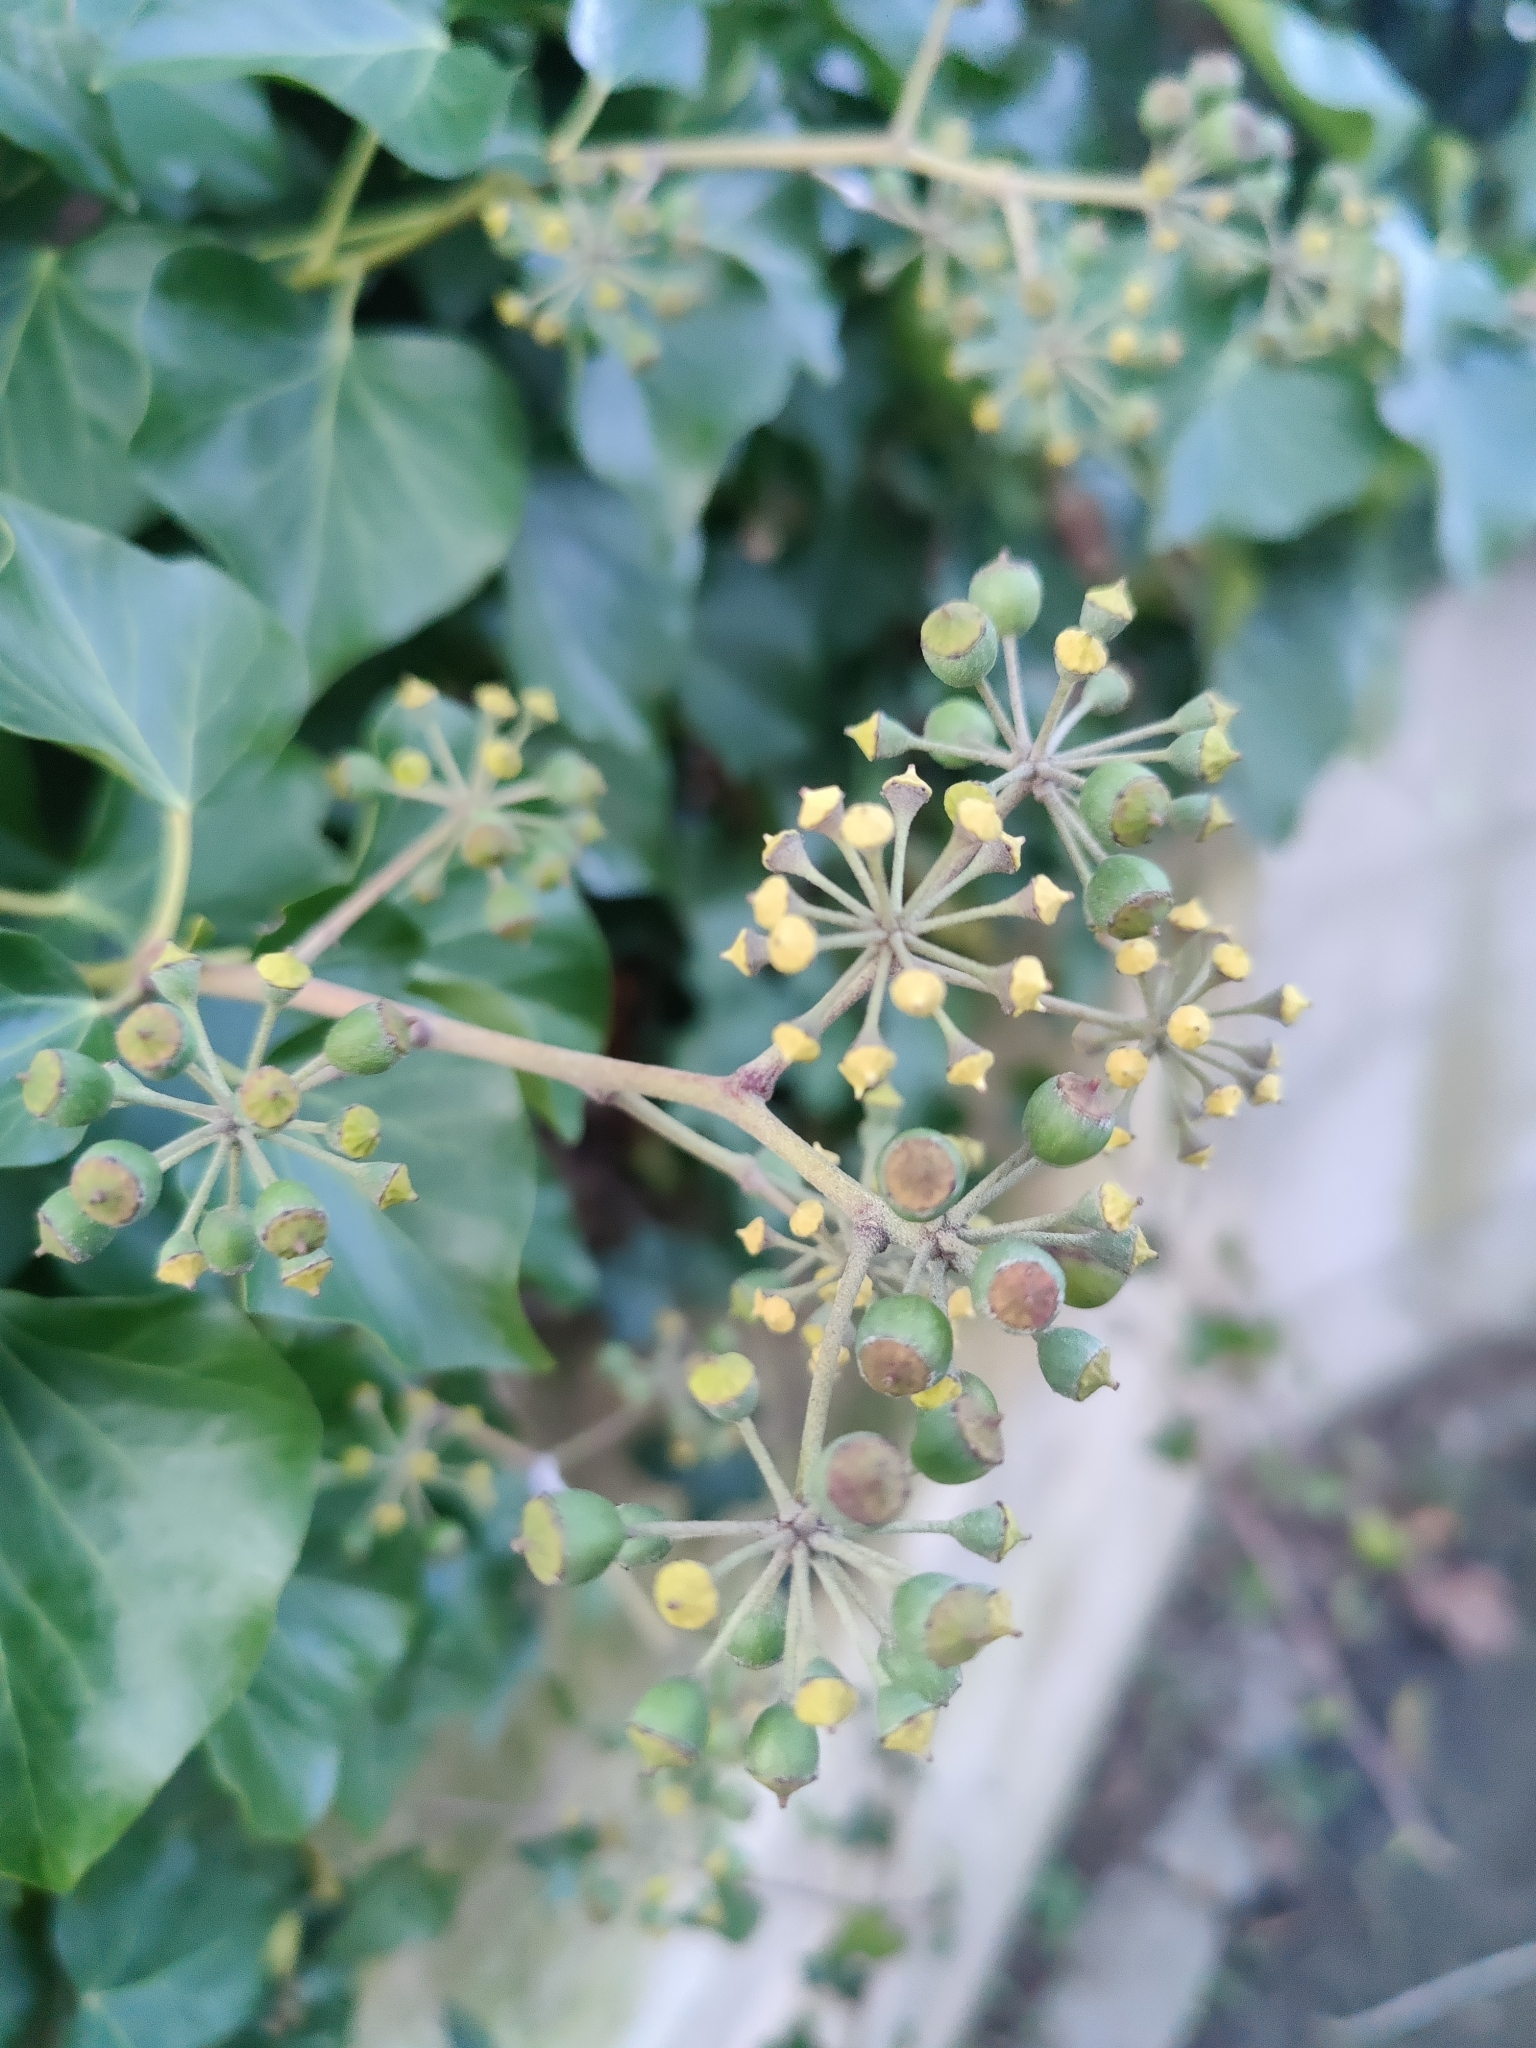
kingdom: Plantae
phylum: Tracheophyta
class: Magnoliopsida
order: Apiales
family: Araliaceae
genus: Hedera
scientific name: Hedera helix
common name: Ivy
